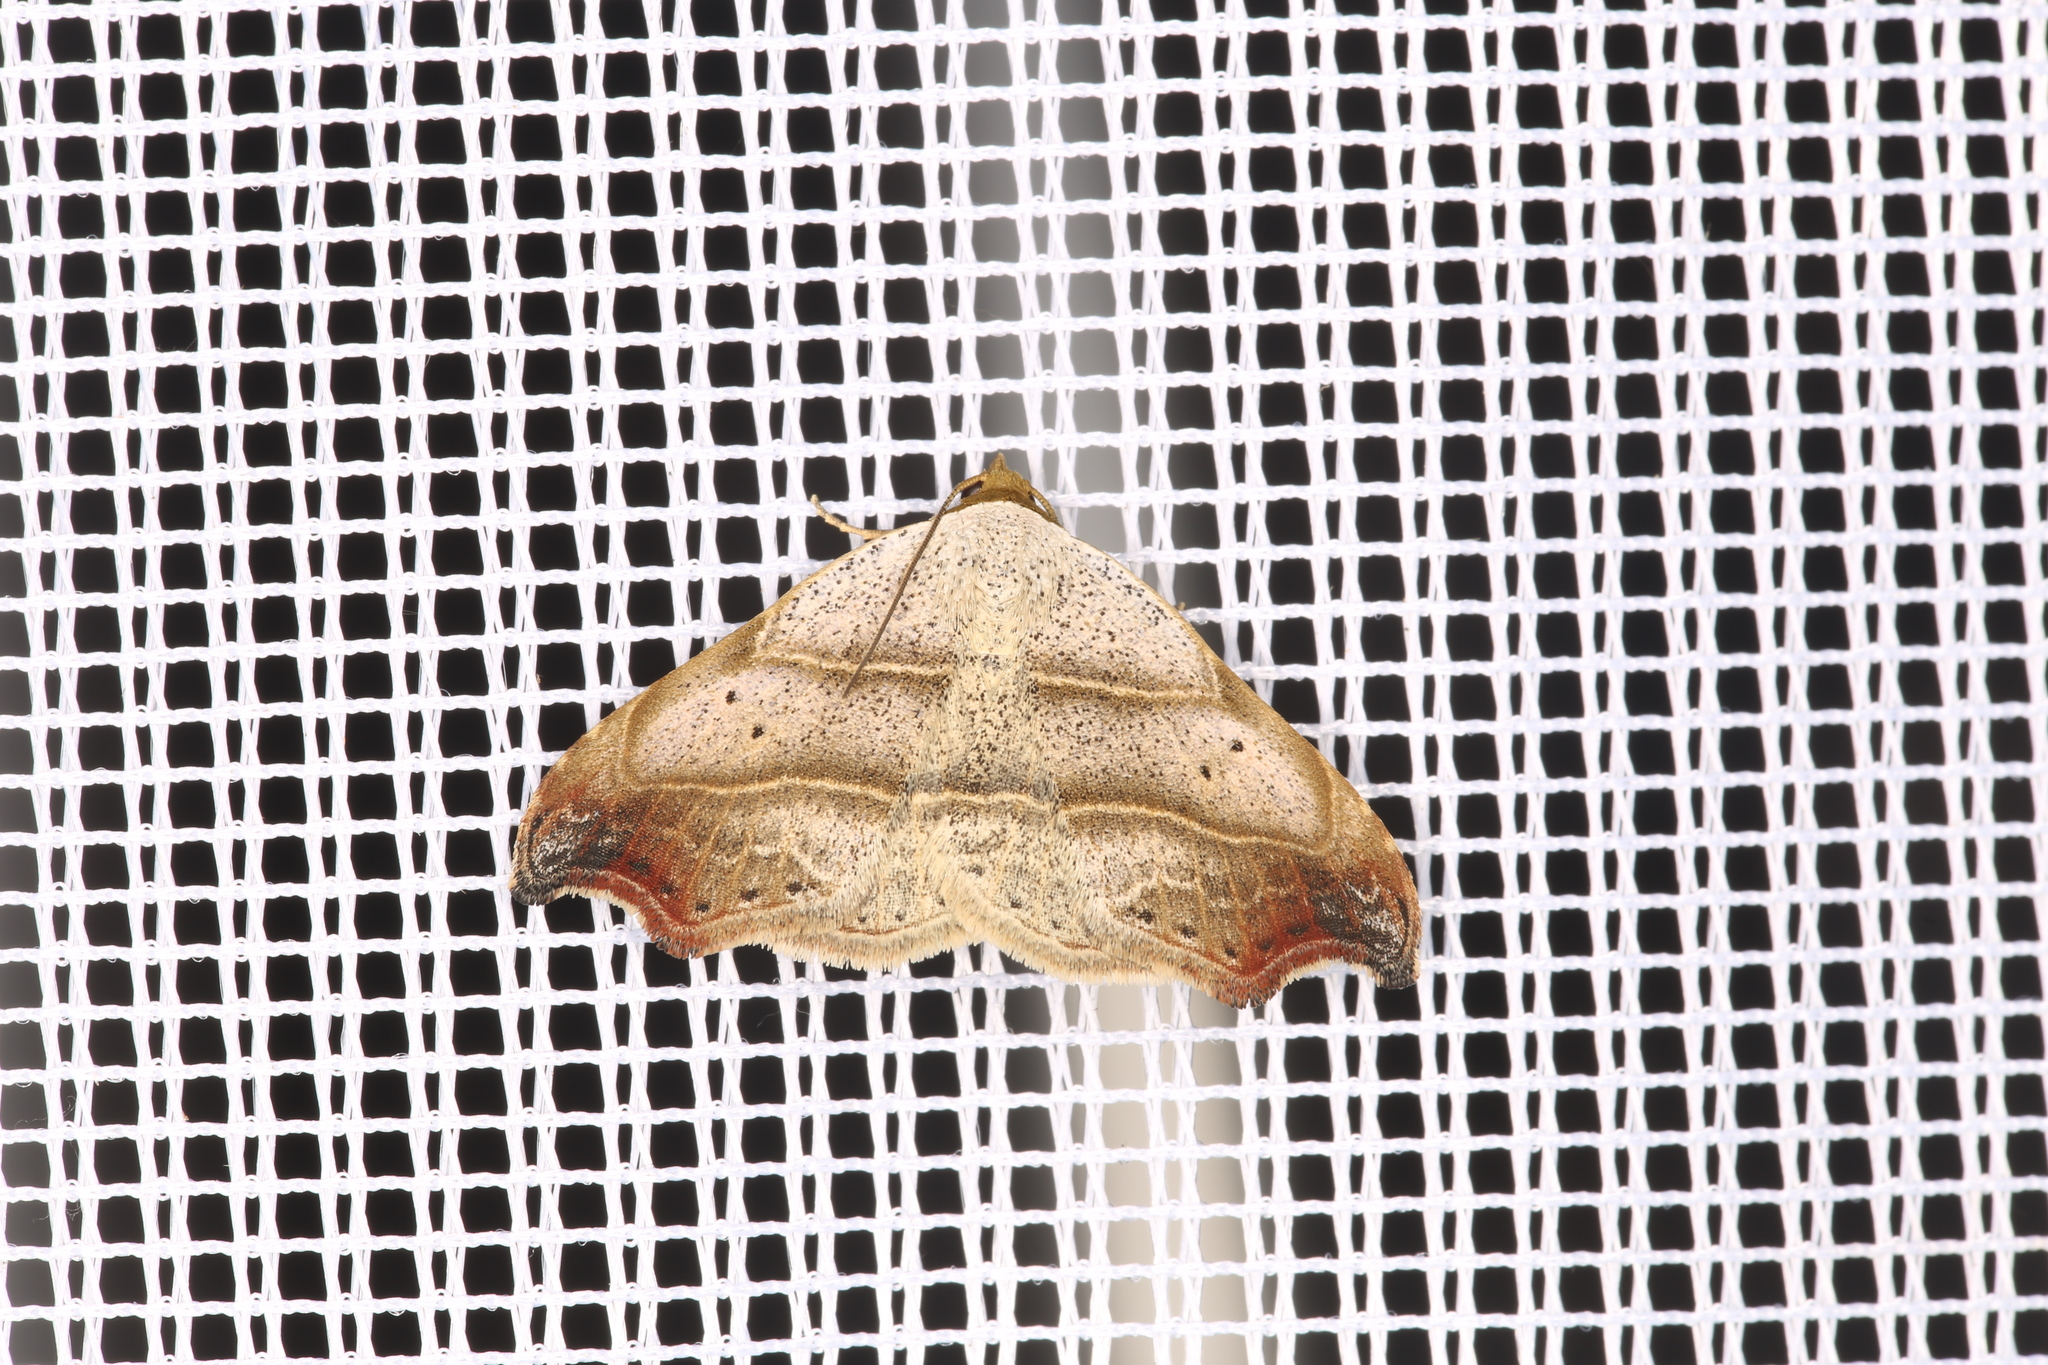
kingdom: Animalia
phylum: Arthropoda
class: Insecta
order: Lepidoptera
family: Erebidae
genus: Laspeyria
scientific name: Laspeyria flexula
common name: Beautiful hook-tip
